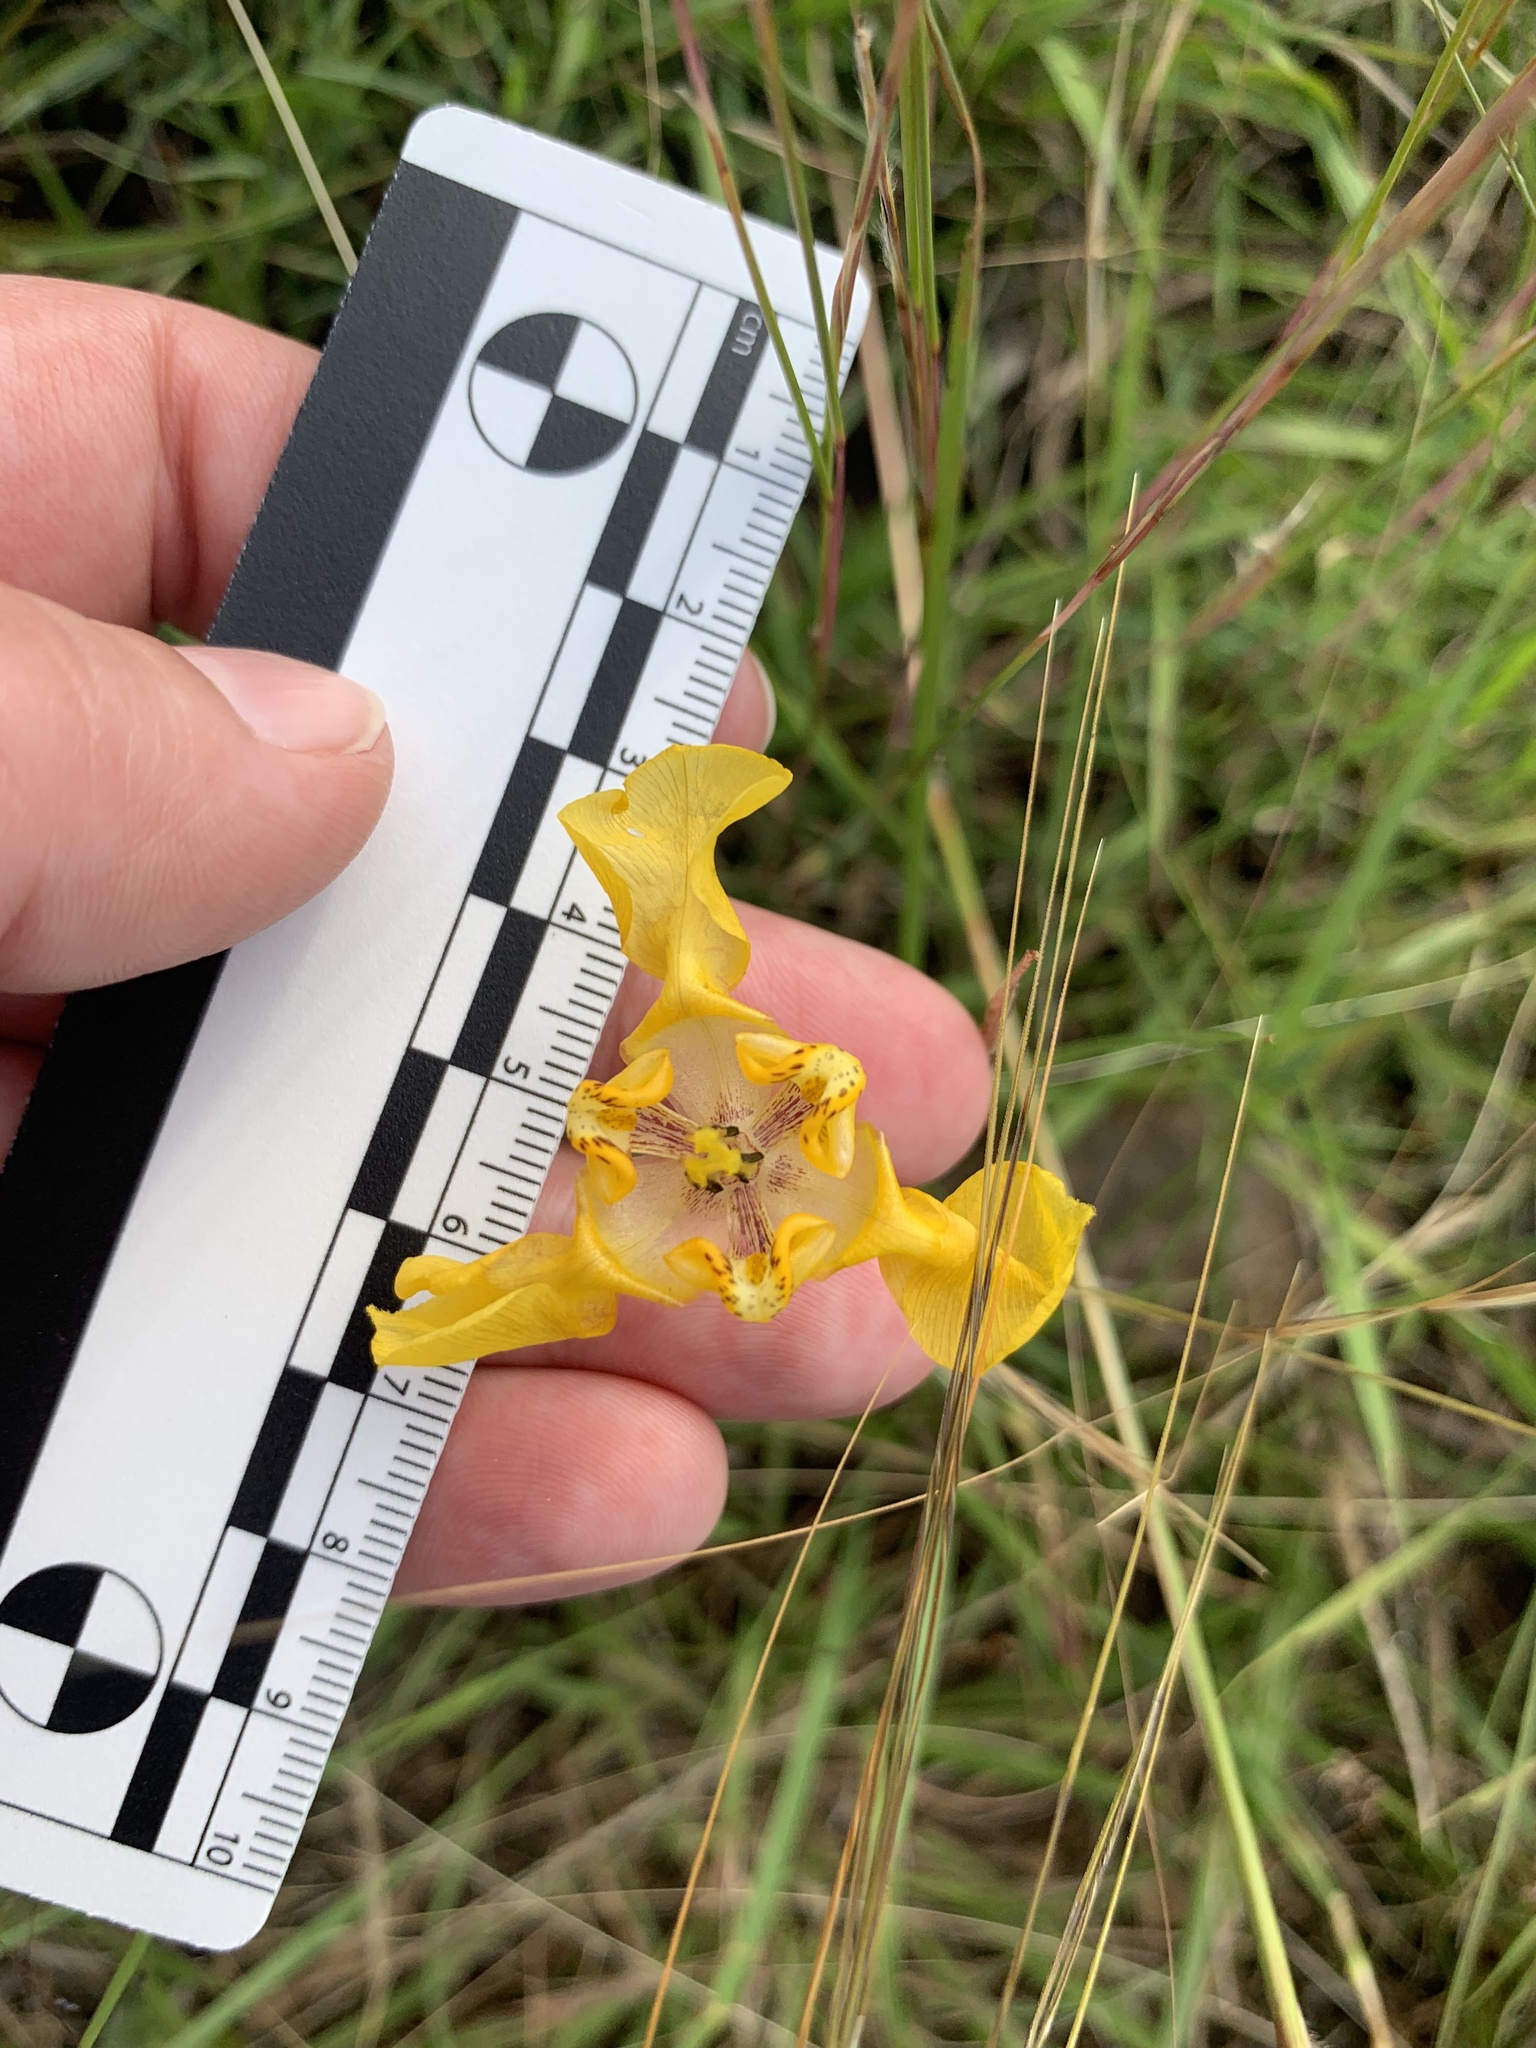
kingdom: Plantae
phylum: Tracheophyta
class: Liliopsida
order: Asparagales
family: Iridaceae
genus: Cypella
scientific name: Cypella fucata
